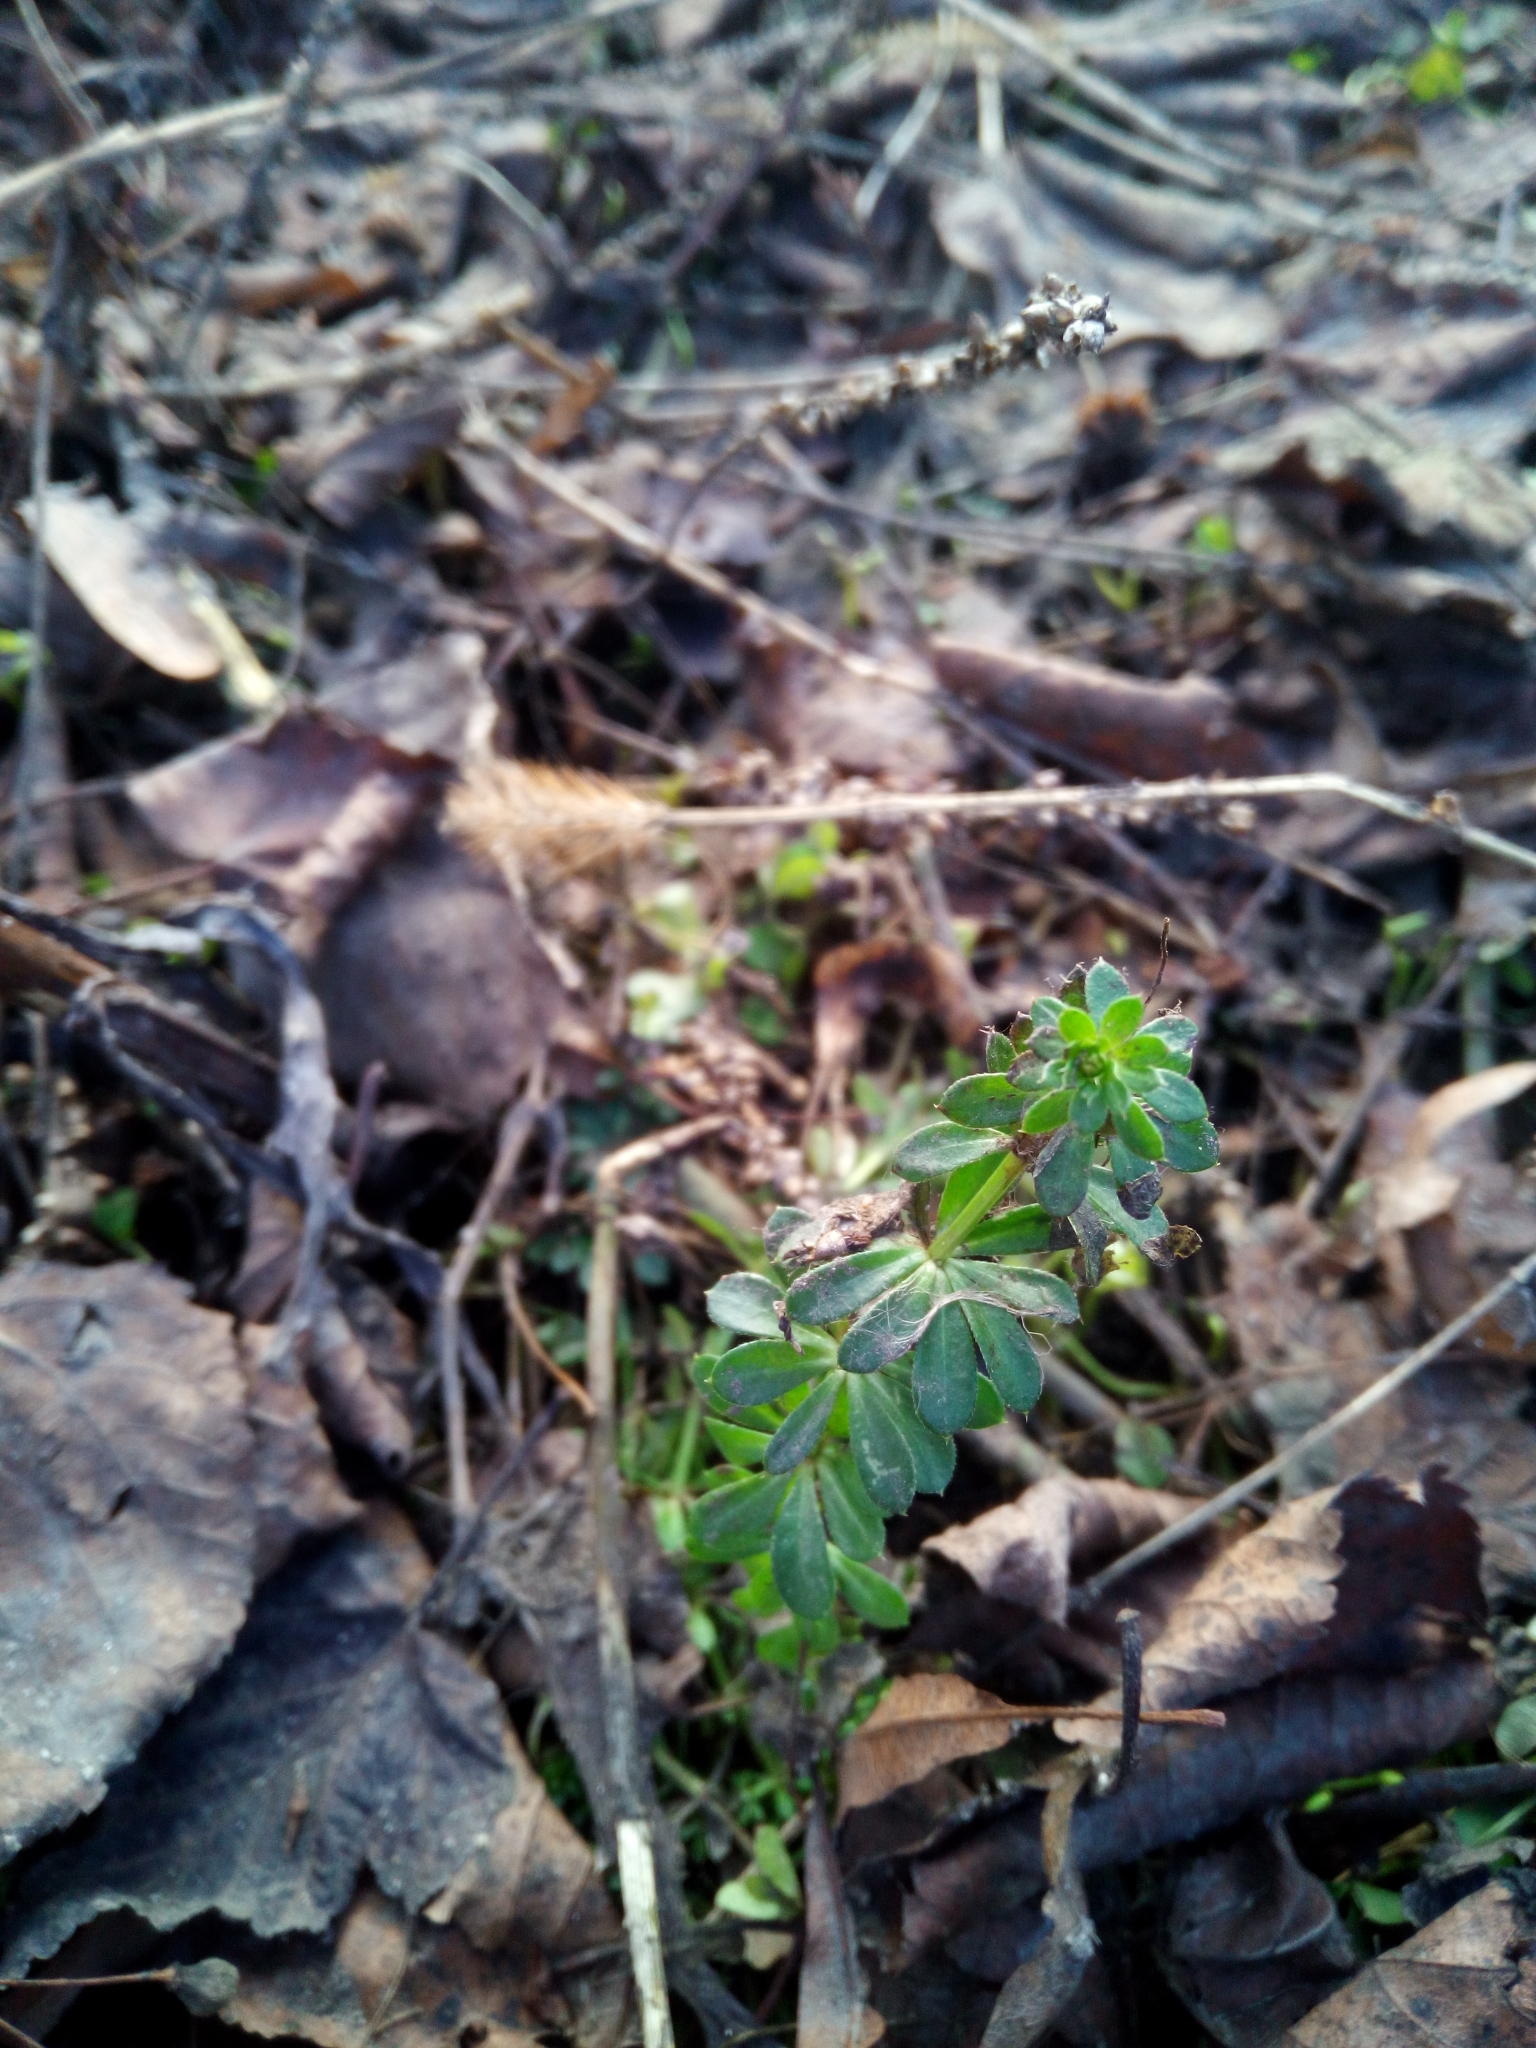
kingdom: Plantae
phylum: Tracheophyta
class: Magnoliopsida
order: Gentianales
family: Rubiaceae
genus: Galium
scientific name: Galium mollugo
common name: Hedge bedstraw
